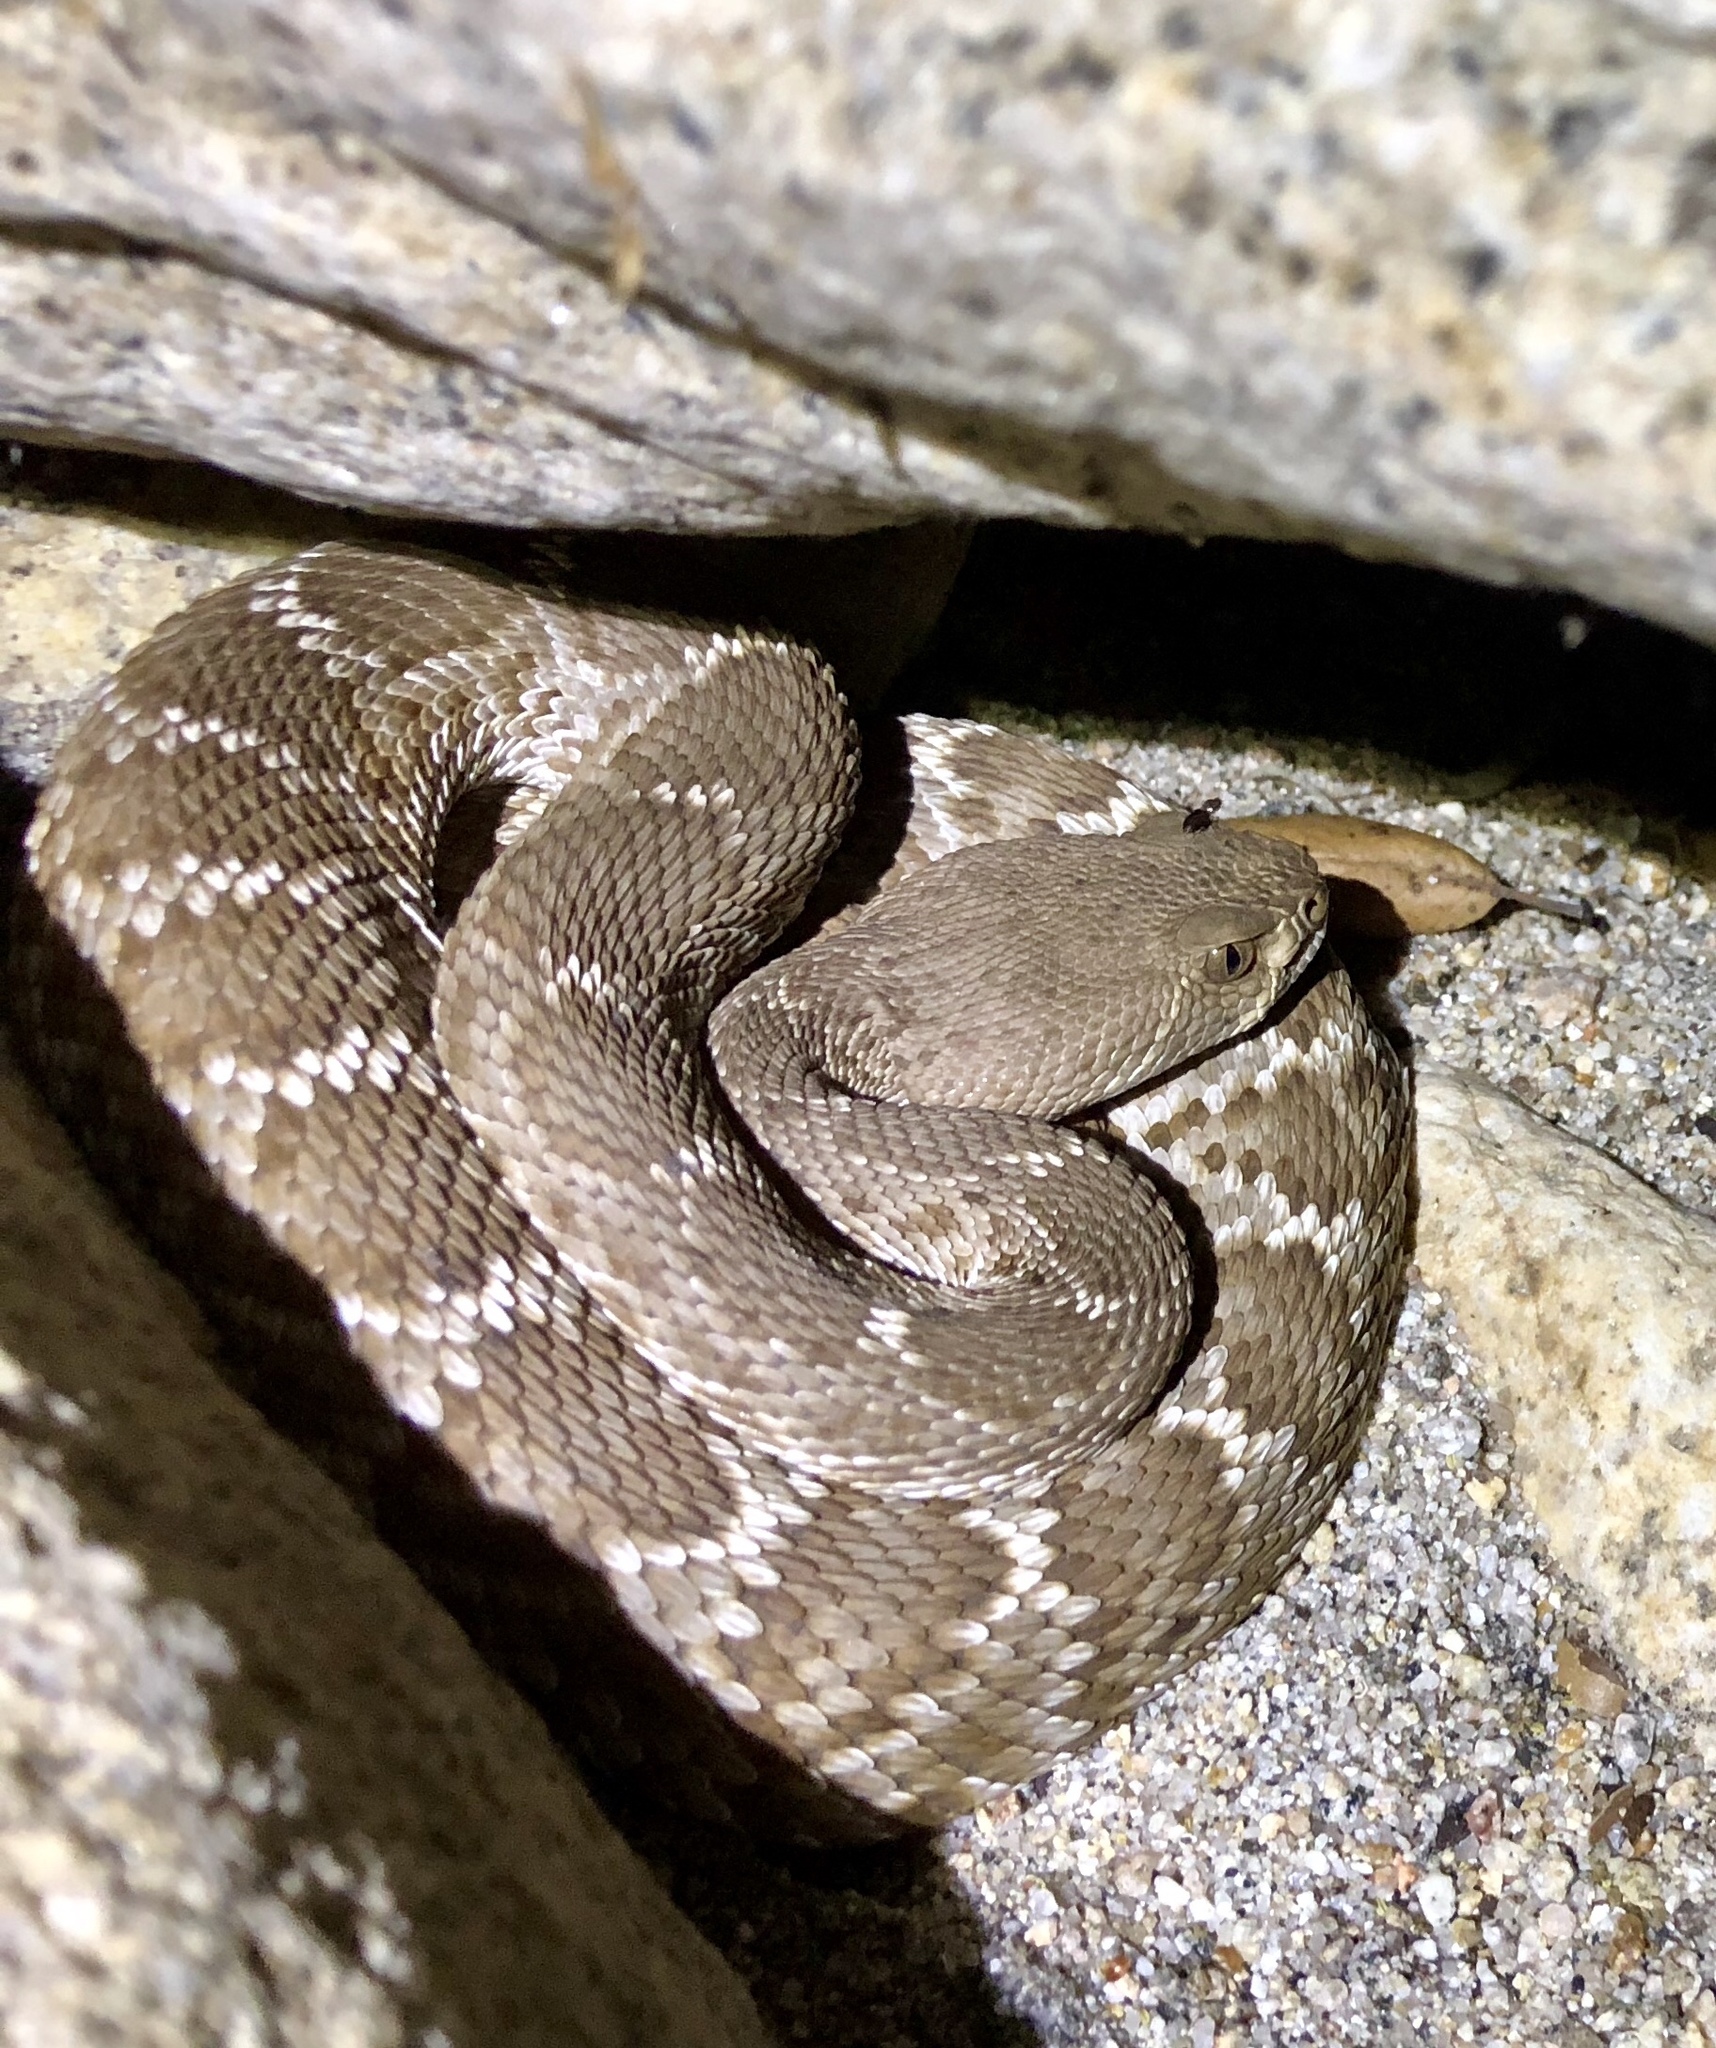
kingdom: Animalia
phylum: Chordata
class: Squamata
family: Viperidae
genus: Crotalus
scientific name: Crotalus ruber
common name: Red diamond rattlesnake
